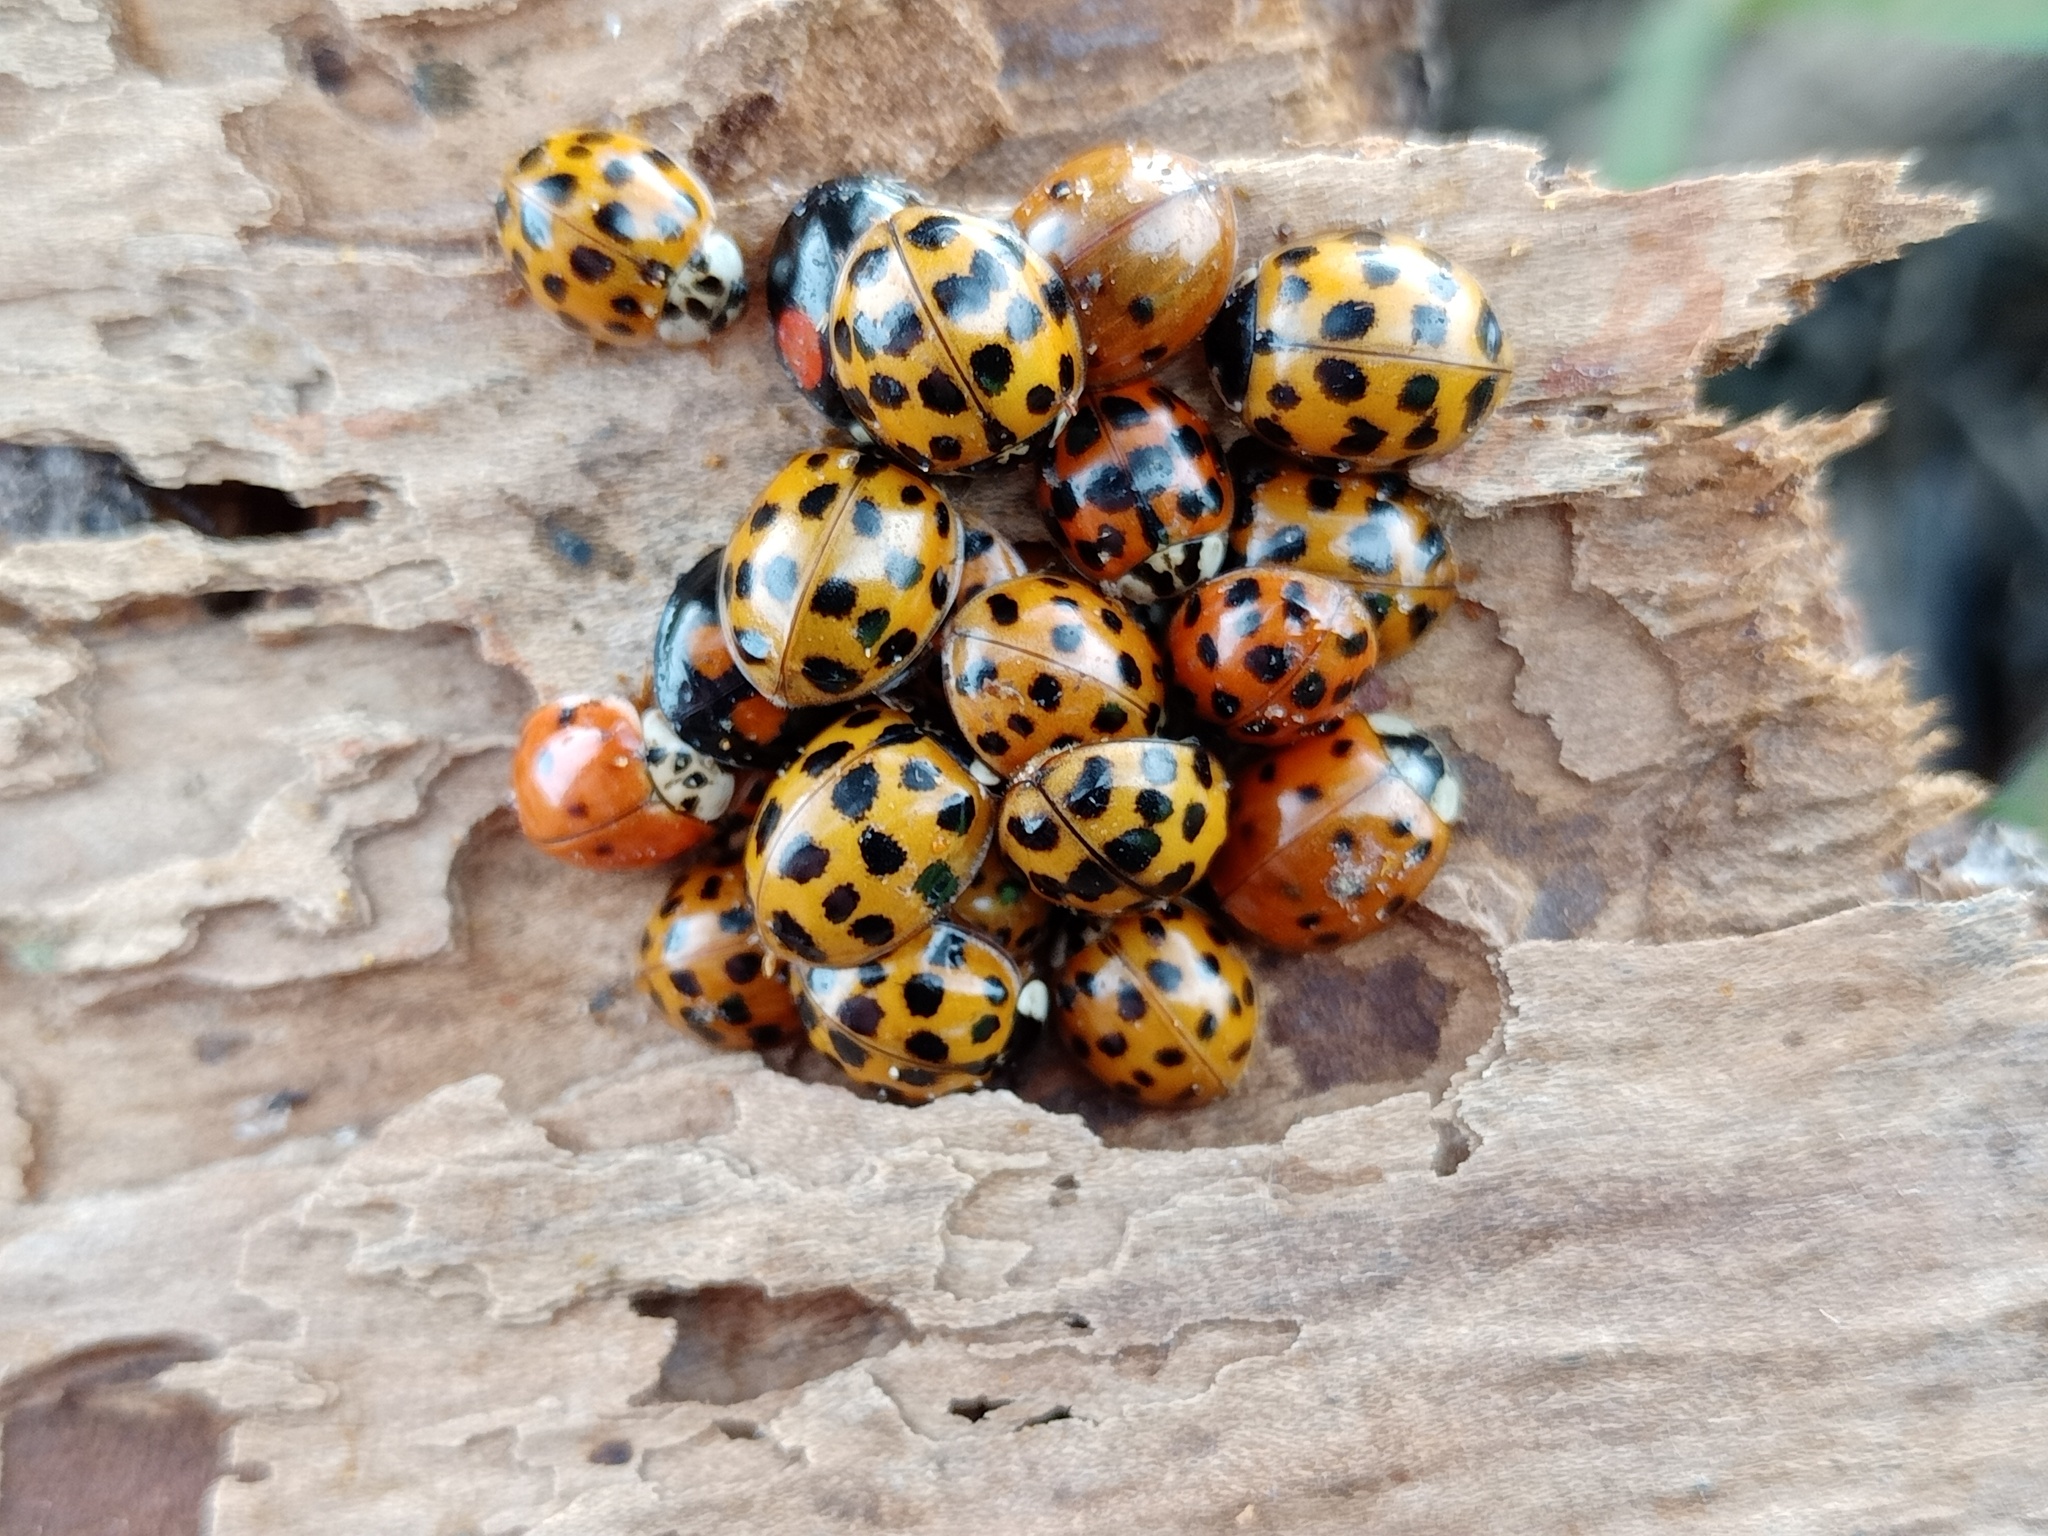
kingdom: Animalia
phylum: Arthropoda
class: Insecta
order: Coleoptera
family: Coccinellidae
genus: Harmonia
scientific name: Harmonia axyridis
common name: Harlequin ladybird
